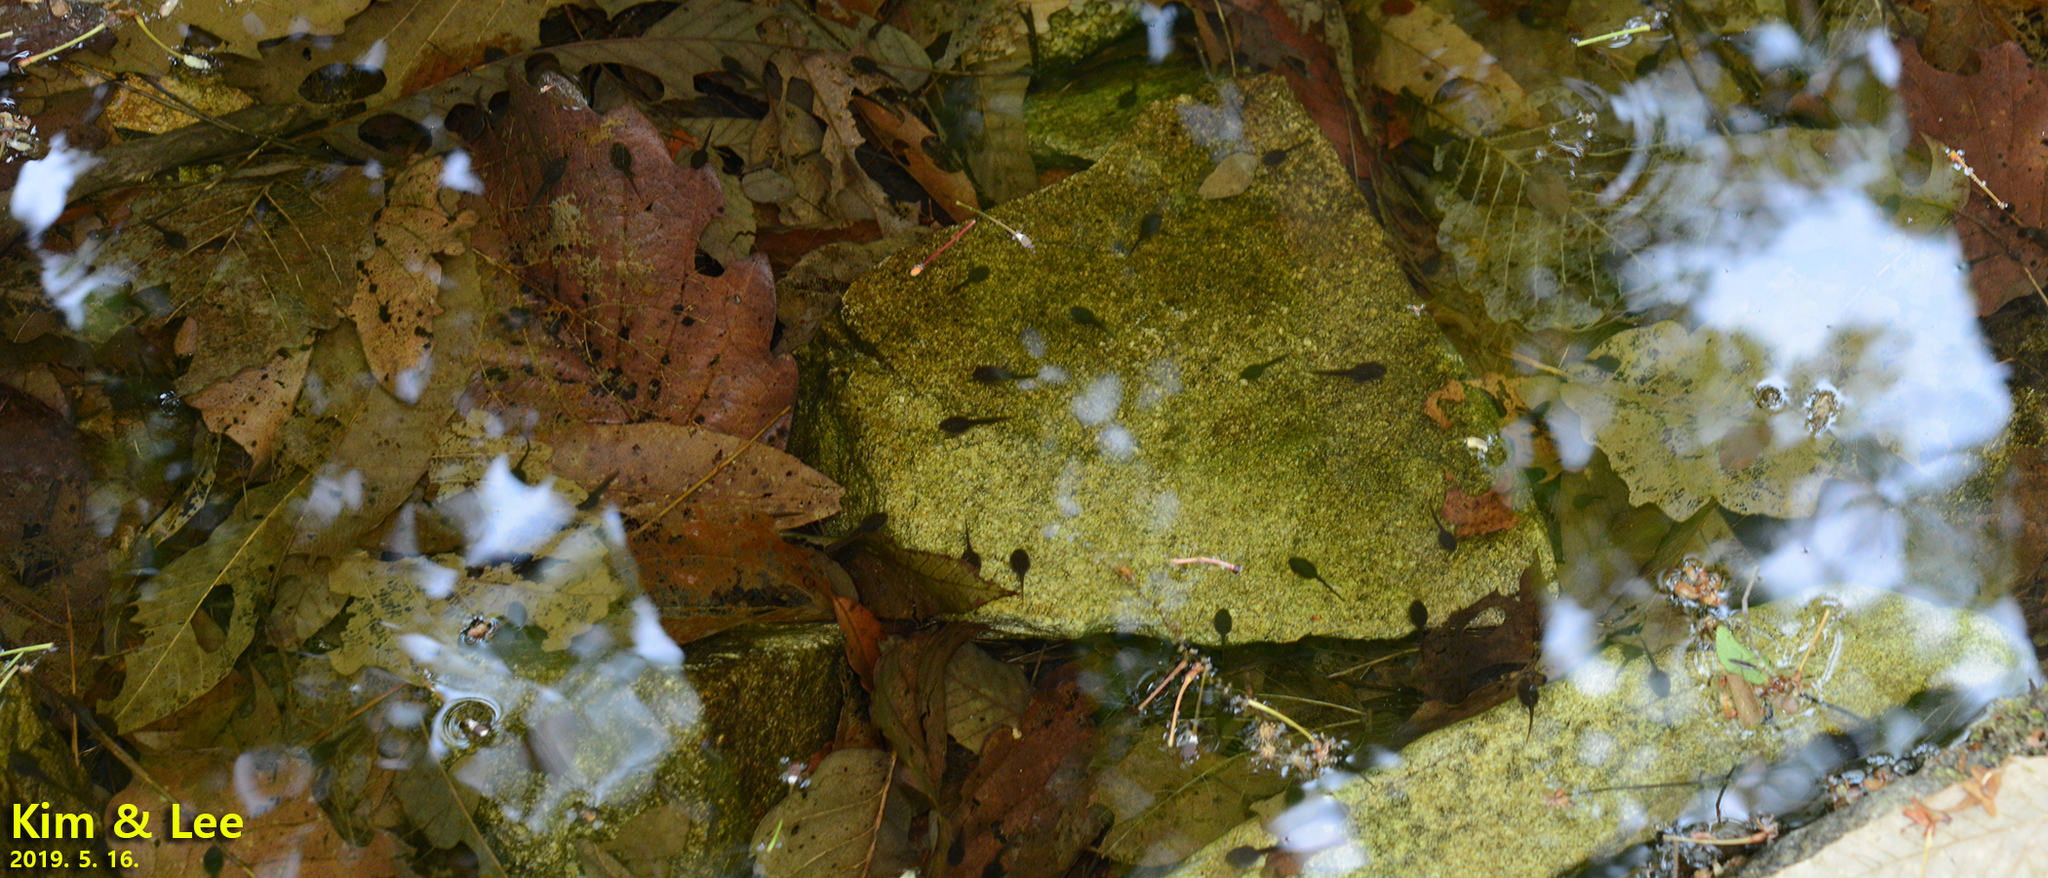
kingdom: Animalia
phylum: Chordata
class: Amphibia
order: Anura
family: Ranidae
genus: Rana
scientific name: Rana huanrenensis
